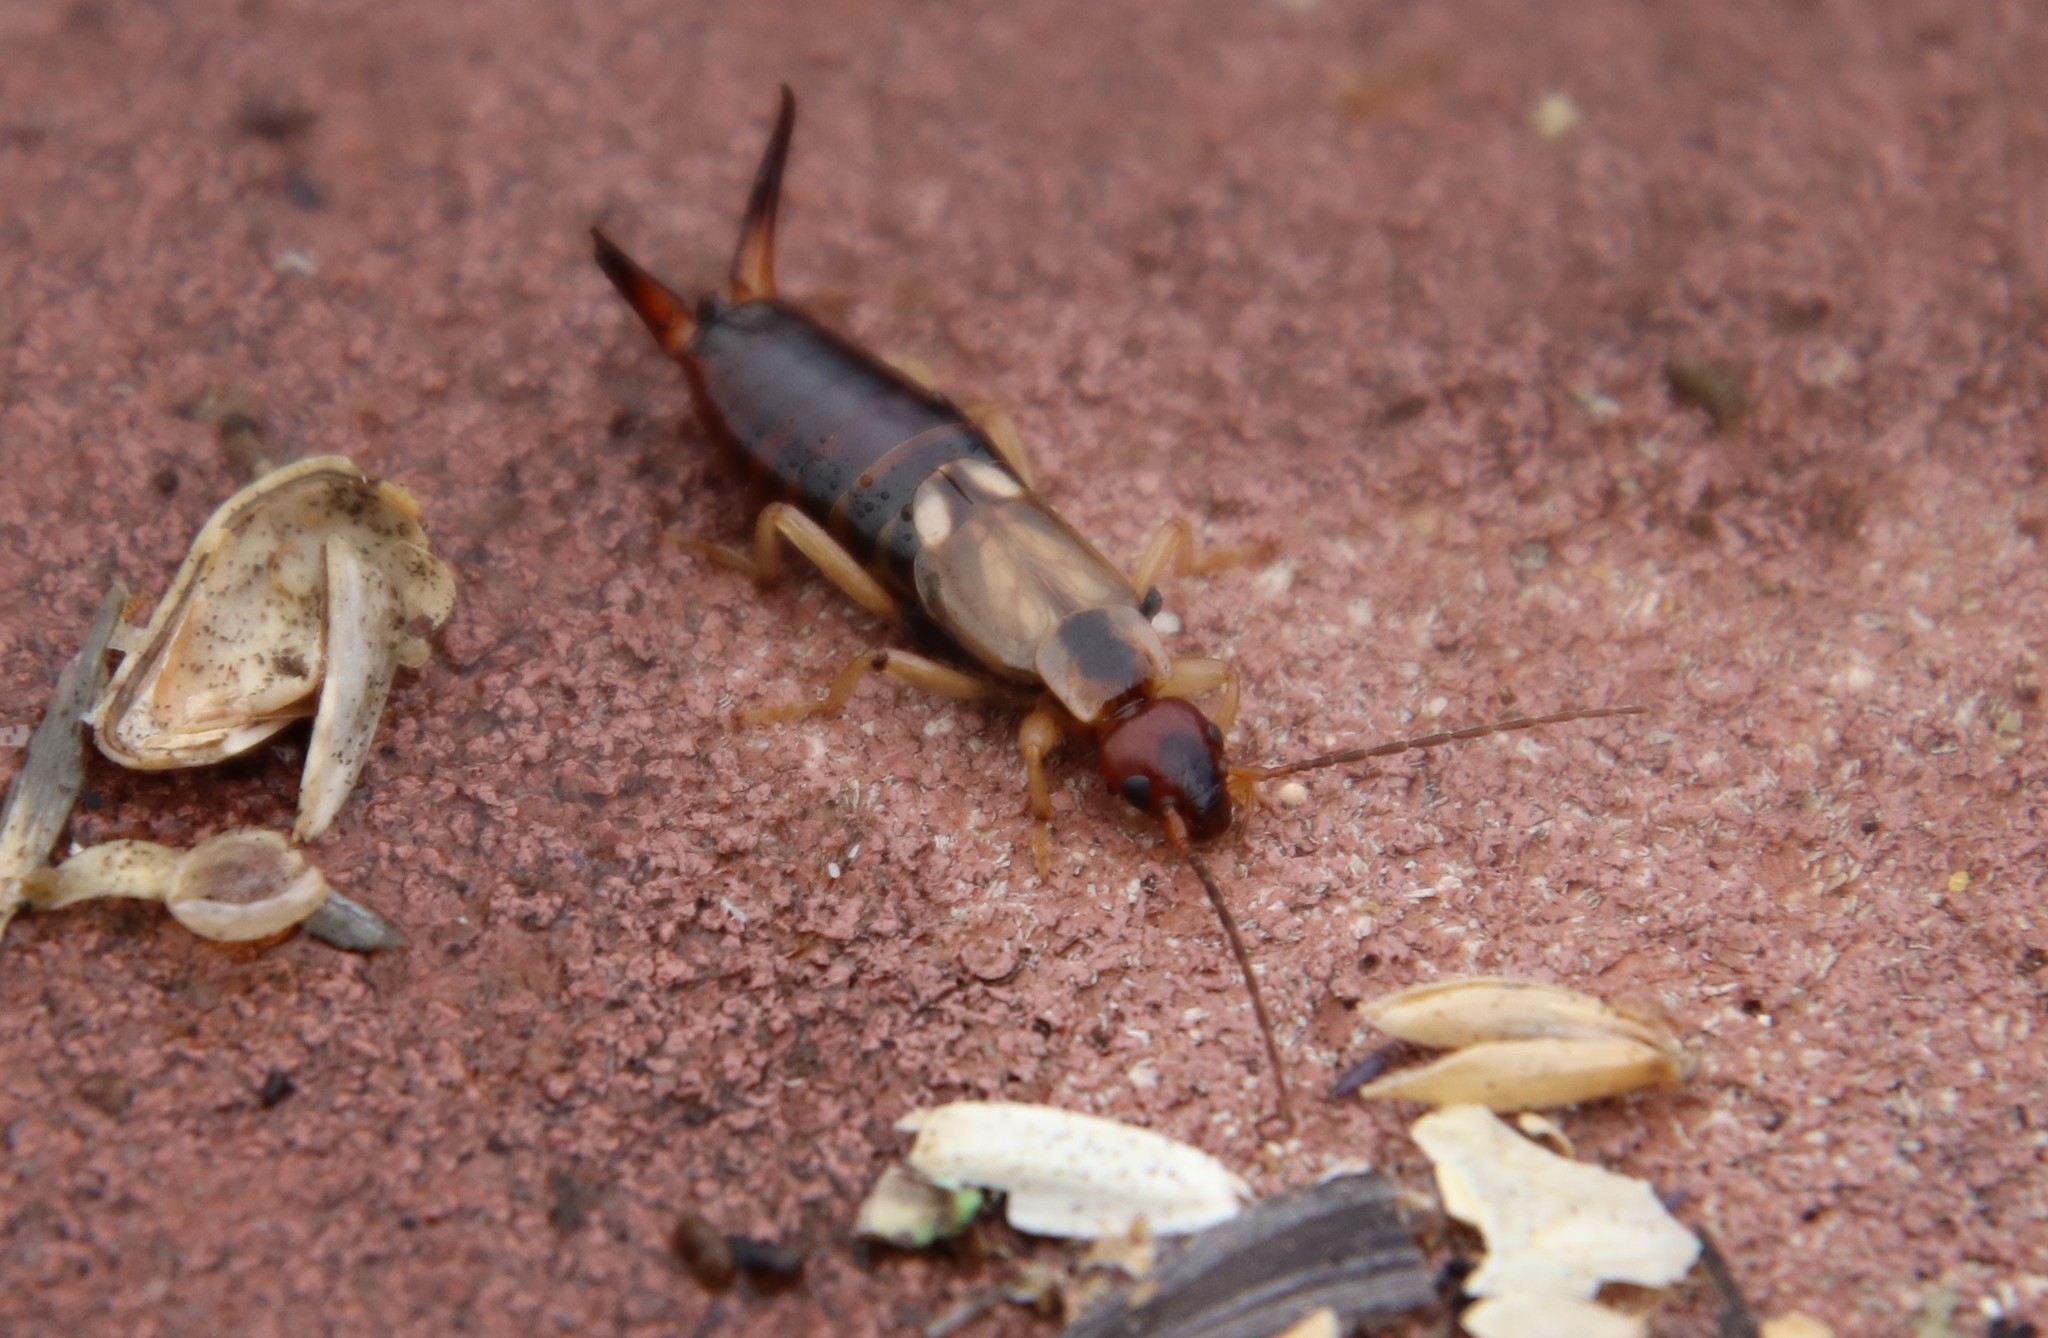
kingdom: Animalia
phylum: Arthropoda
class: Insecta
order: Dermaptera
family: Forficulidae
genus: Forficula
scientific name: Forficula
